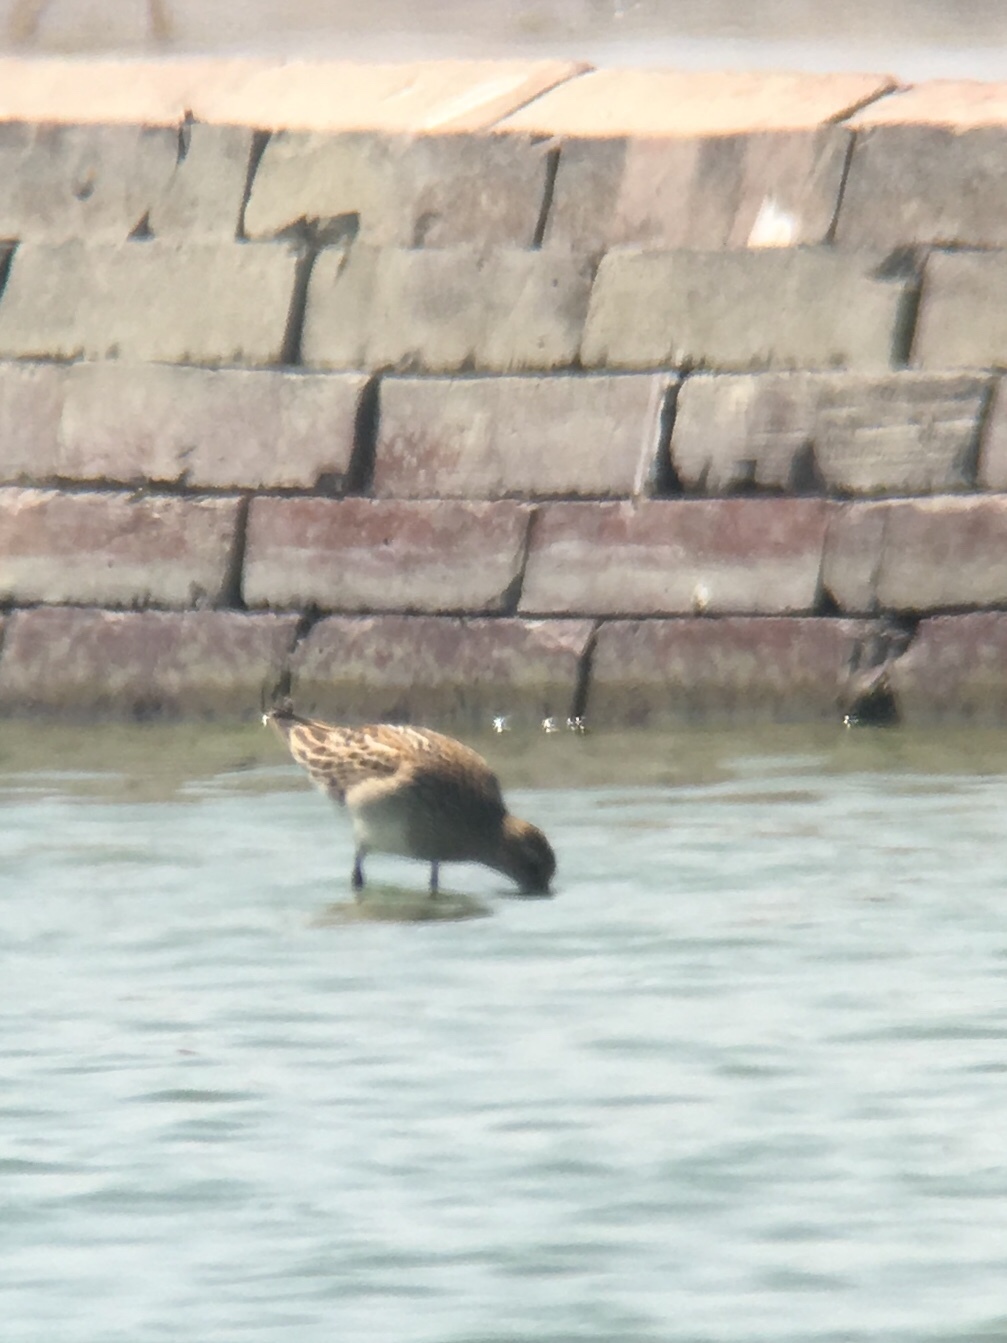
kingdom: Animalia
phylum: Chordata
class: Aves
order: Charadriiformes
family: Scolopacidae
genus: Calidris
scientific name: Calidris melanotos
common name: Pectoral sandpiper
